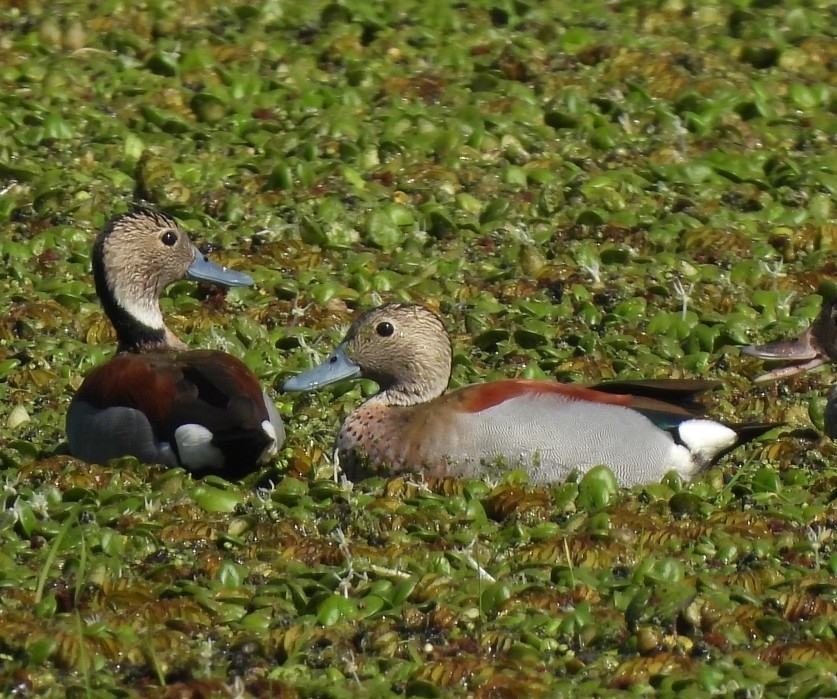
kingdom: Animalia
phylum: Chordata
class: Aves
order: Anseriformes
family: Anatidae
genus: Callonetta
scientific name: Callonetta leucophrys
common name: Ringed teal
